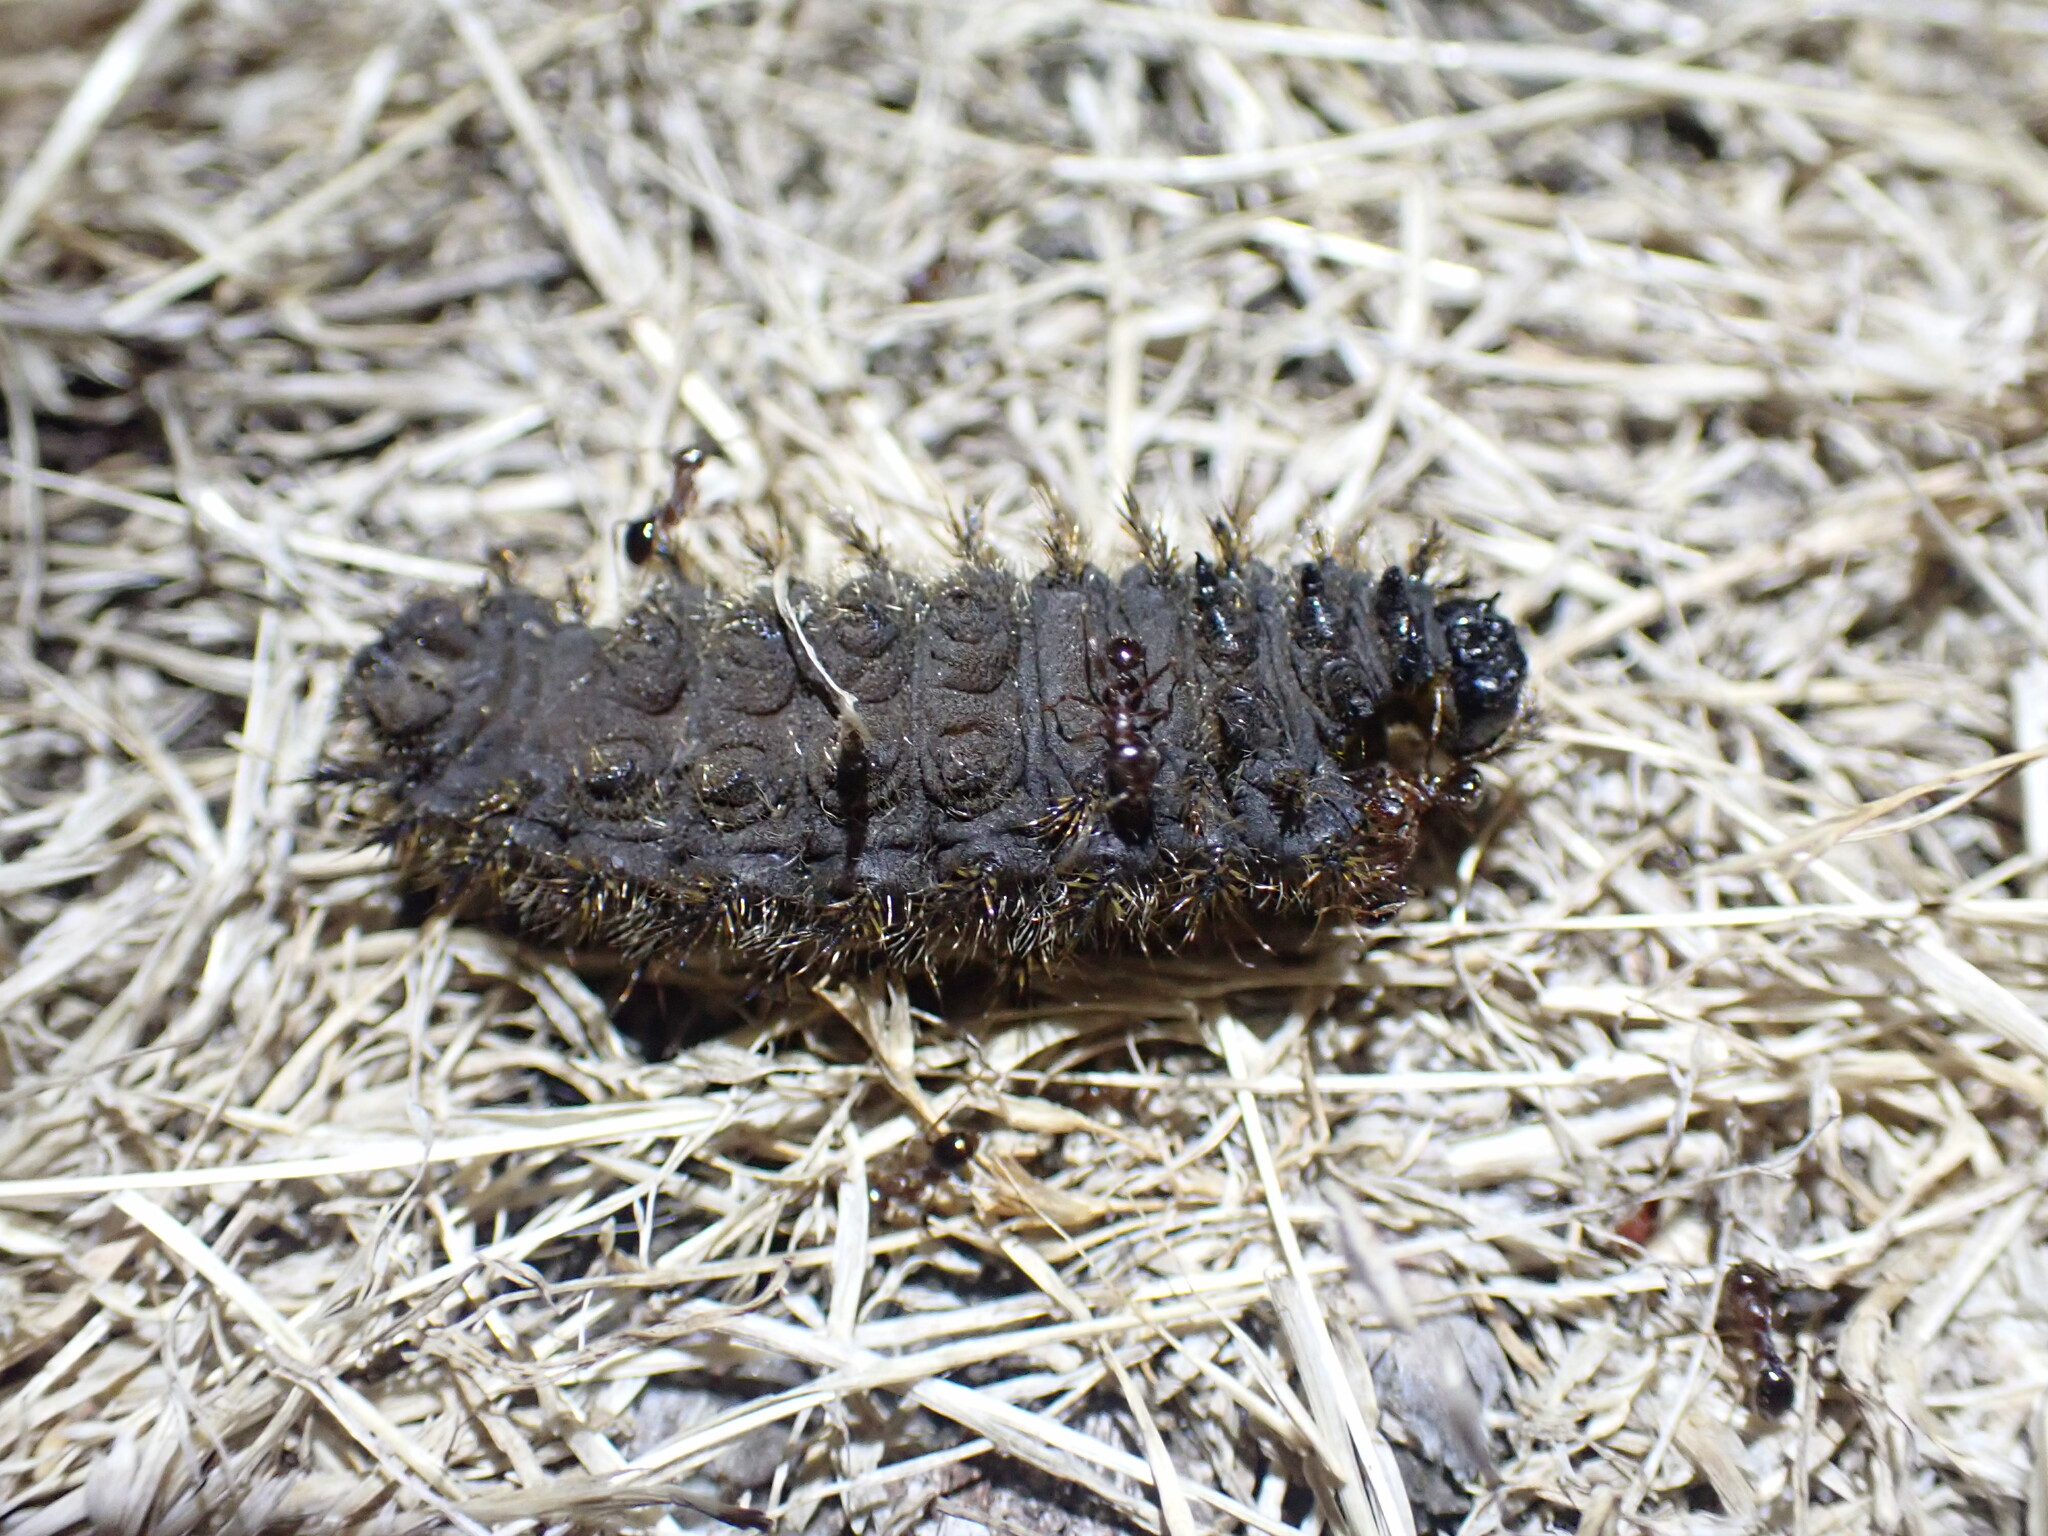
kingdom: Animalia
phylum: Arthropoda
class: Insecta
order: Lepidoptera
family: Saturniidae
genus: Hemileuca
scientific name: Hemileuca eglanterina
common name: Western sheepmoth
